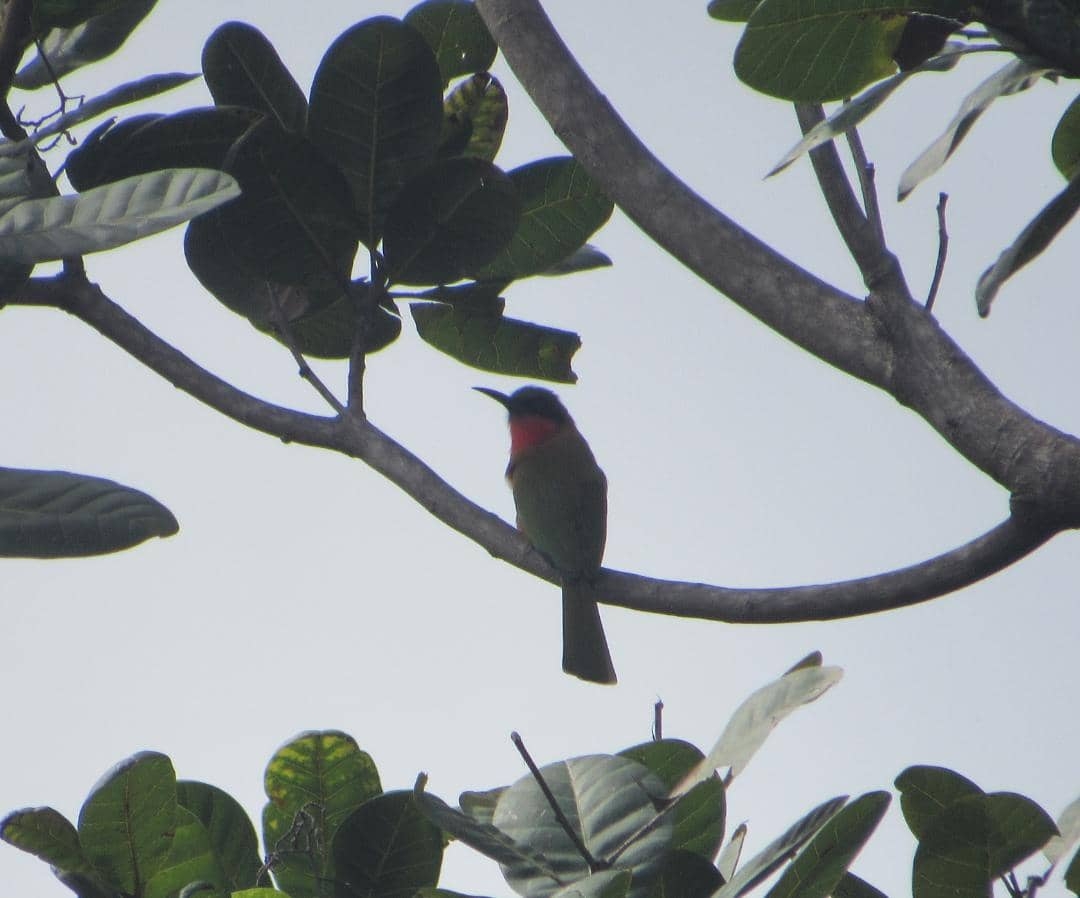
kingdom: Animalia
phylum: Chordata
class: Aves
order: Coraciiformes
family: Meropidae
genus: Merops
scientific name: Merops bulocki
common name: Red-throated bee-eater
